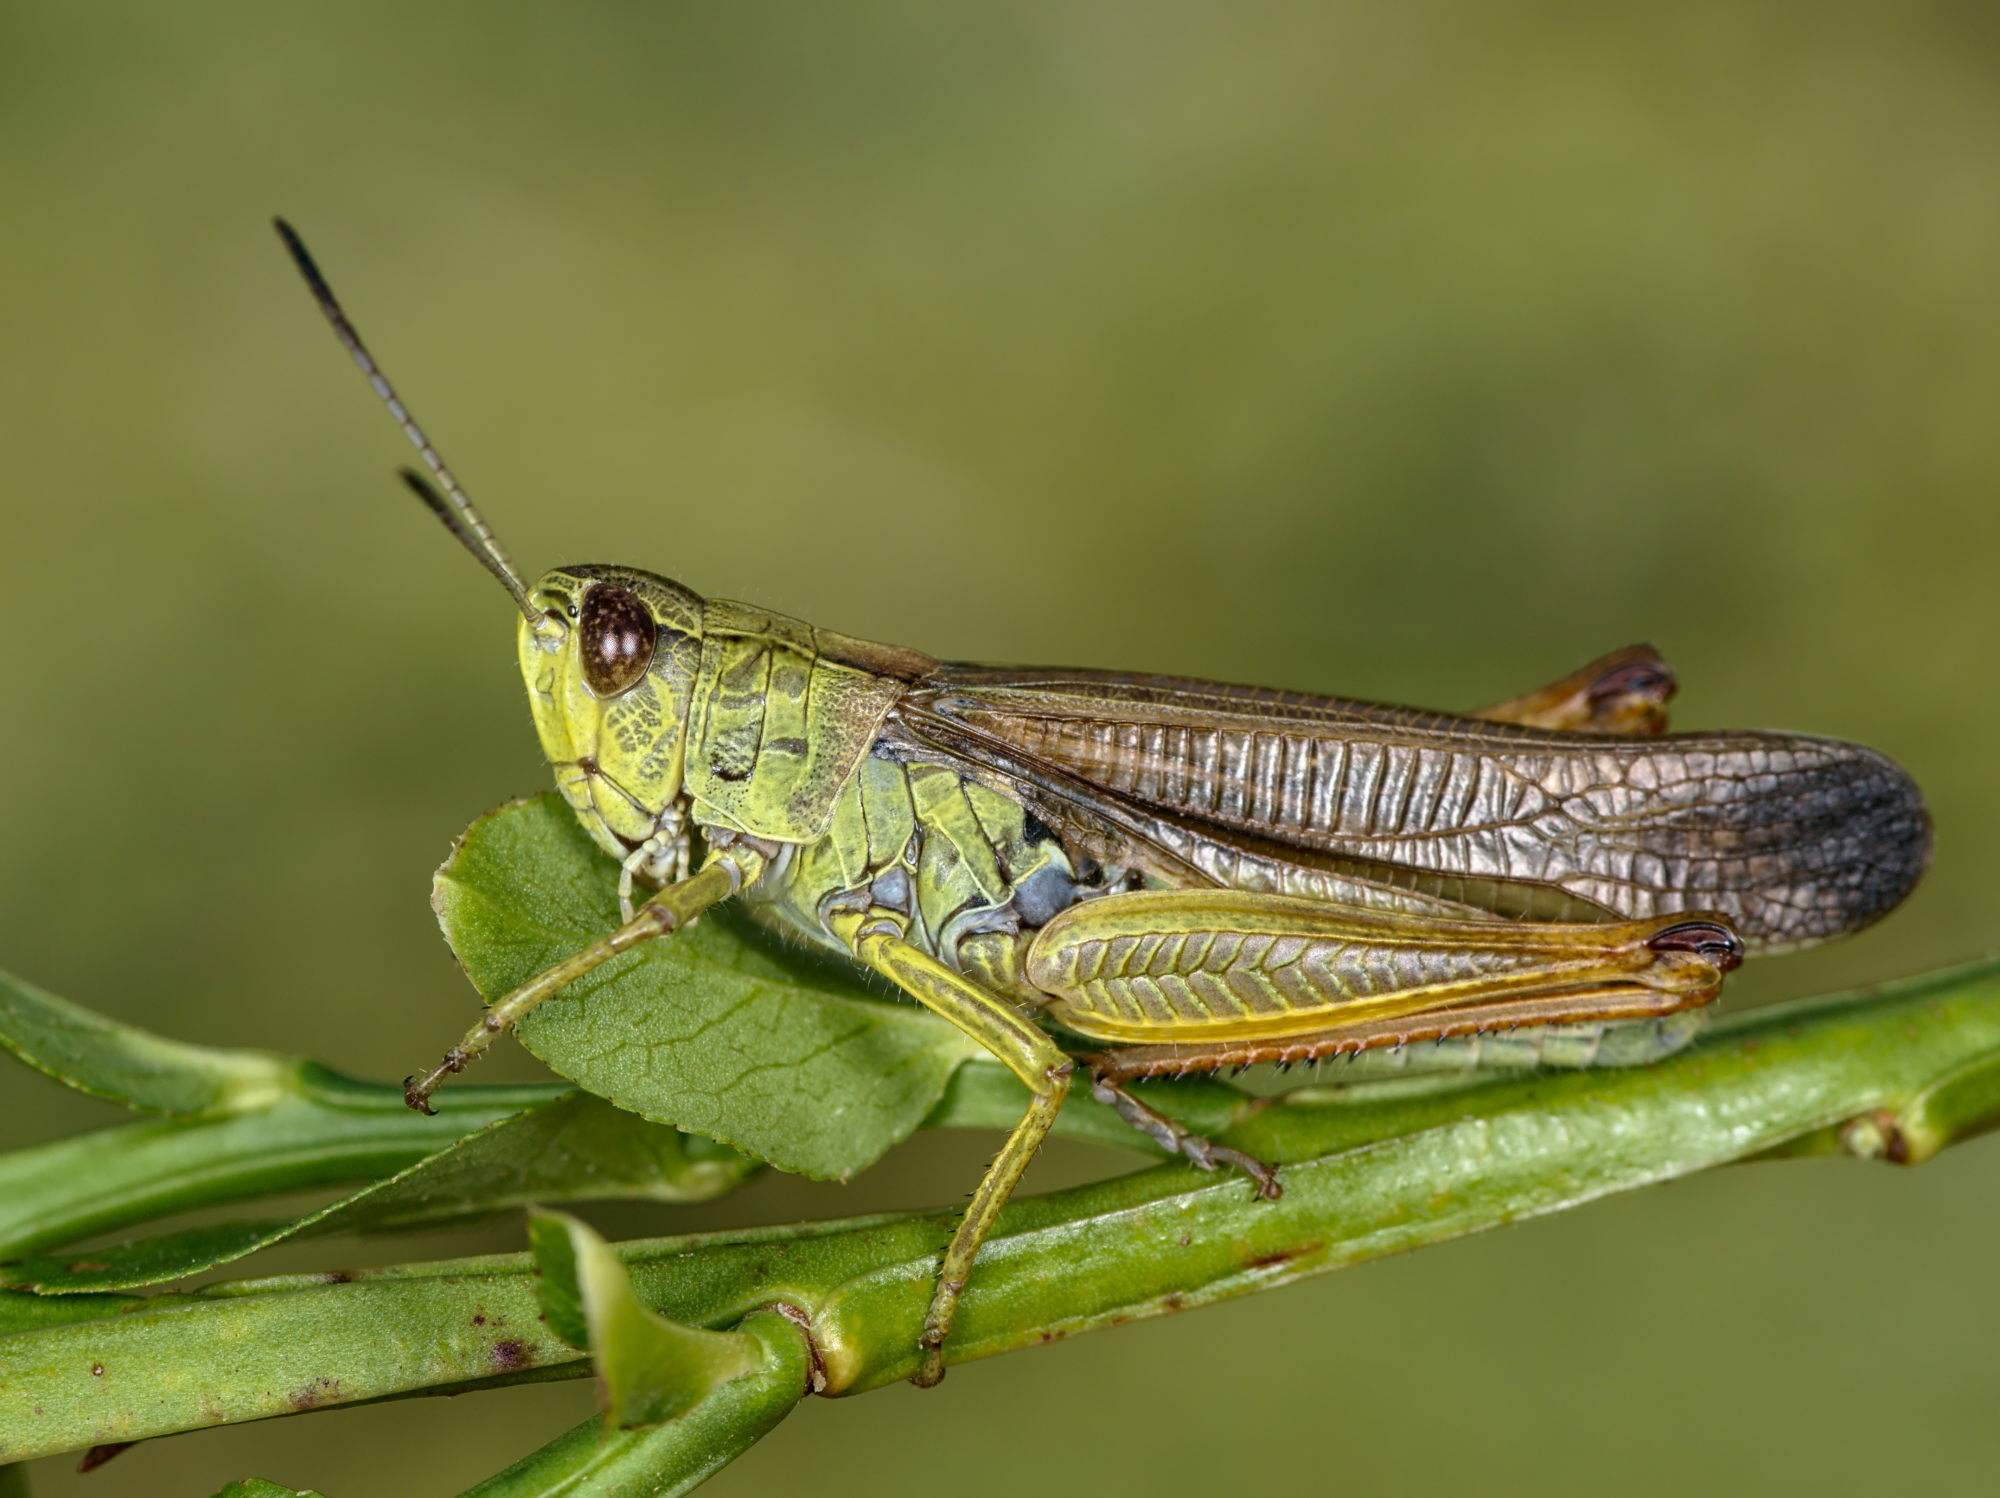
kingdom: Animalia
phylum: Arthropoda
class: Insecta
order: Orthoptera
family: Acrididae
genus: Stauroderus
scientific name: Stauroderus scalaris
